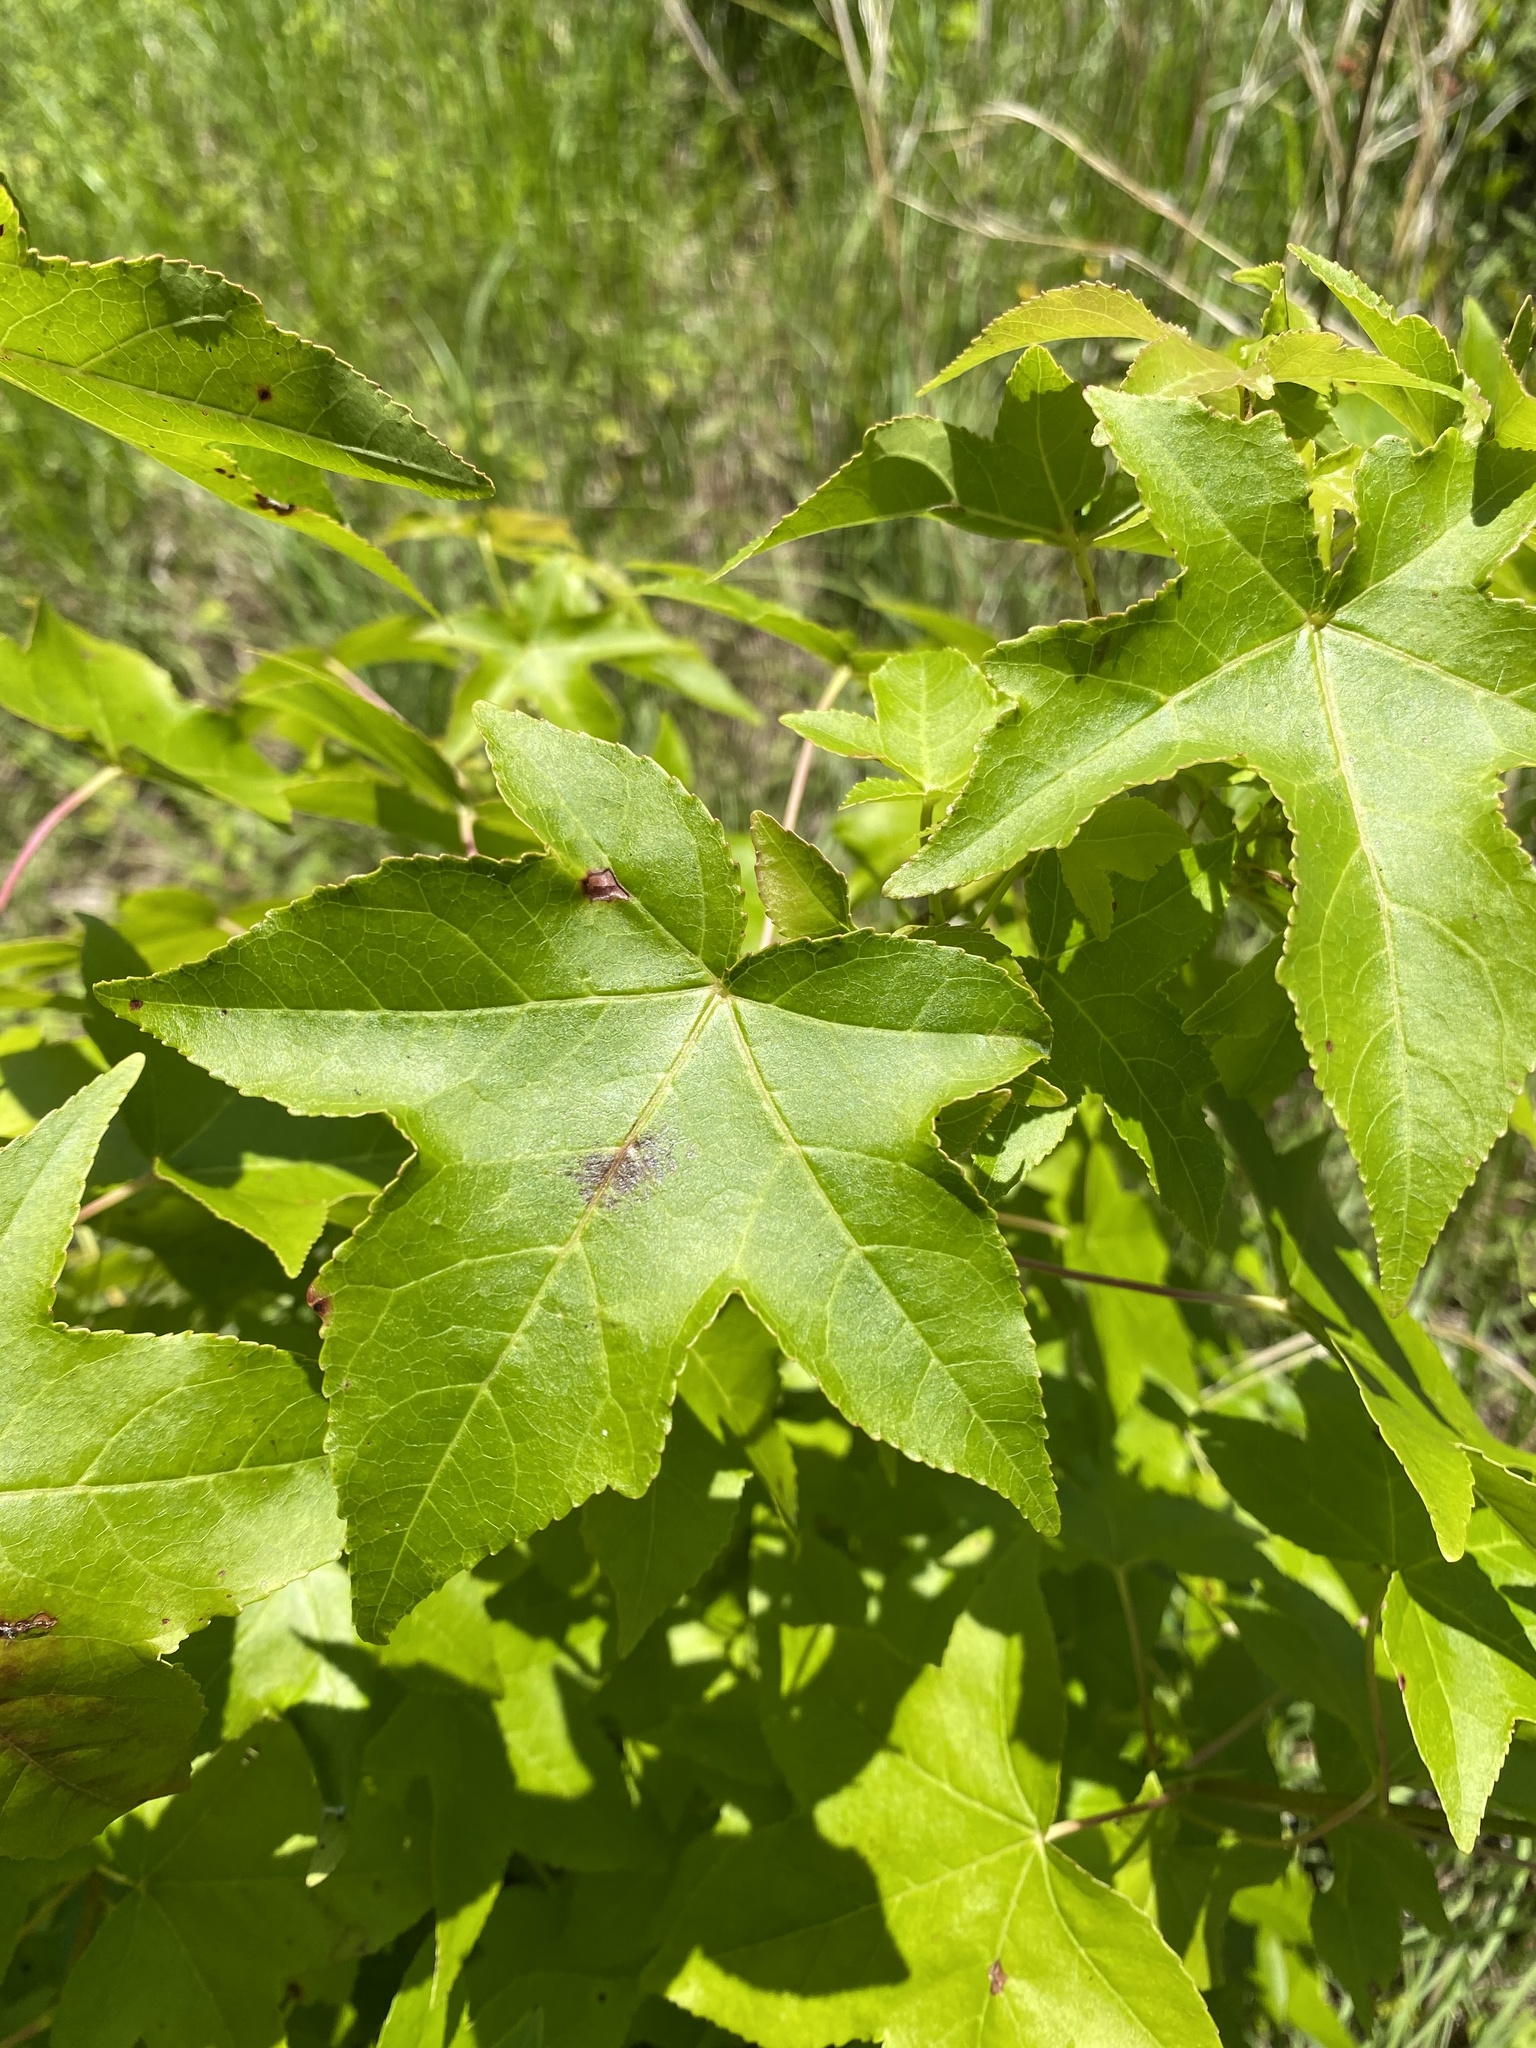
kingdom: Plantae
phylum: Tracheophyta
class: Magnoliopsida
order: Saxifragales
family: Altingiaceae
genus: Liquidambar
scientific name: Liquidambar styraciflua
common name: Sweet gum
